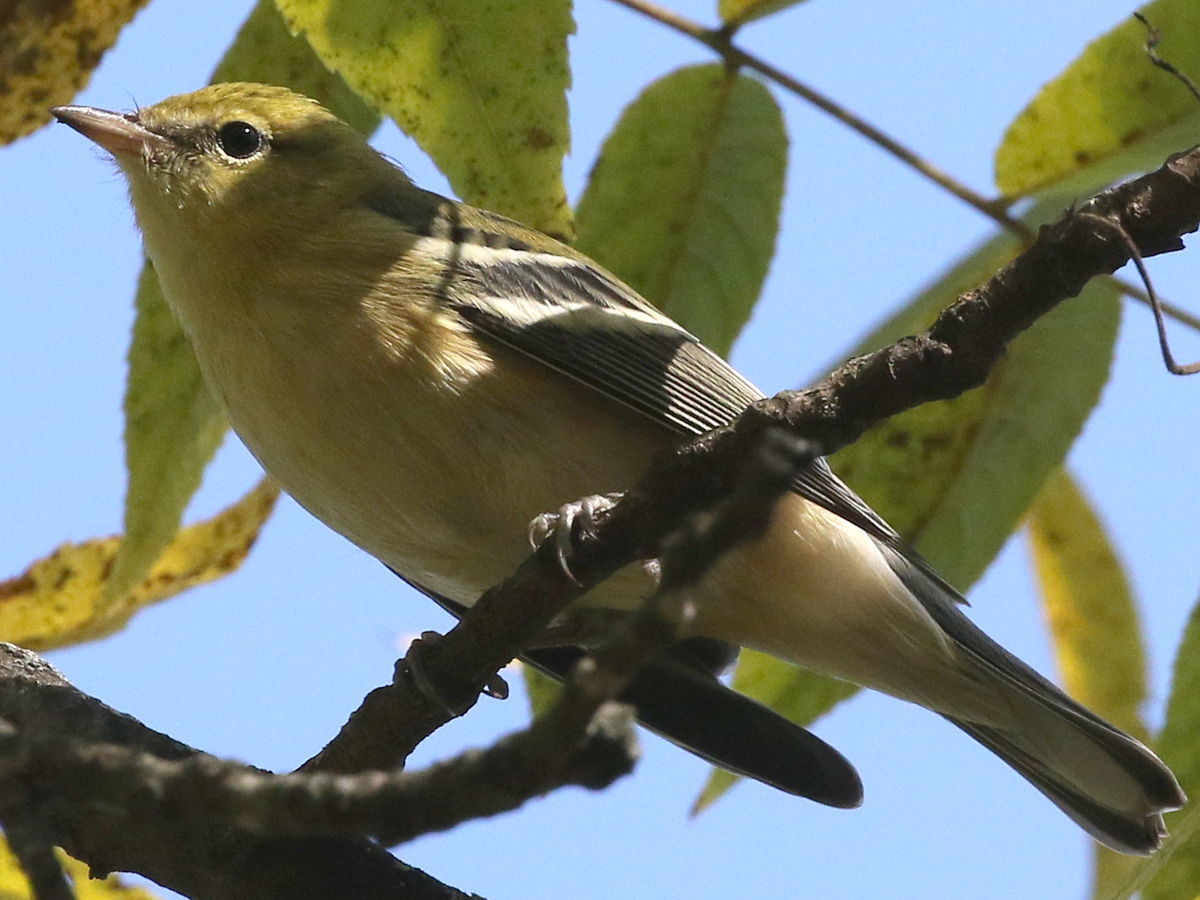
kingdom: Animalia
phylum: Chordata
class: Aves
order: Passeriformes
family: Parulidae
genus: Setophaga
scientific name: Setophaga castanea
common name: Bay-breasted warbler
